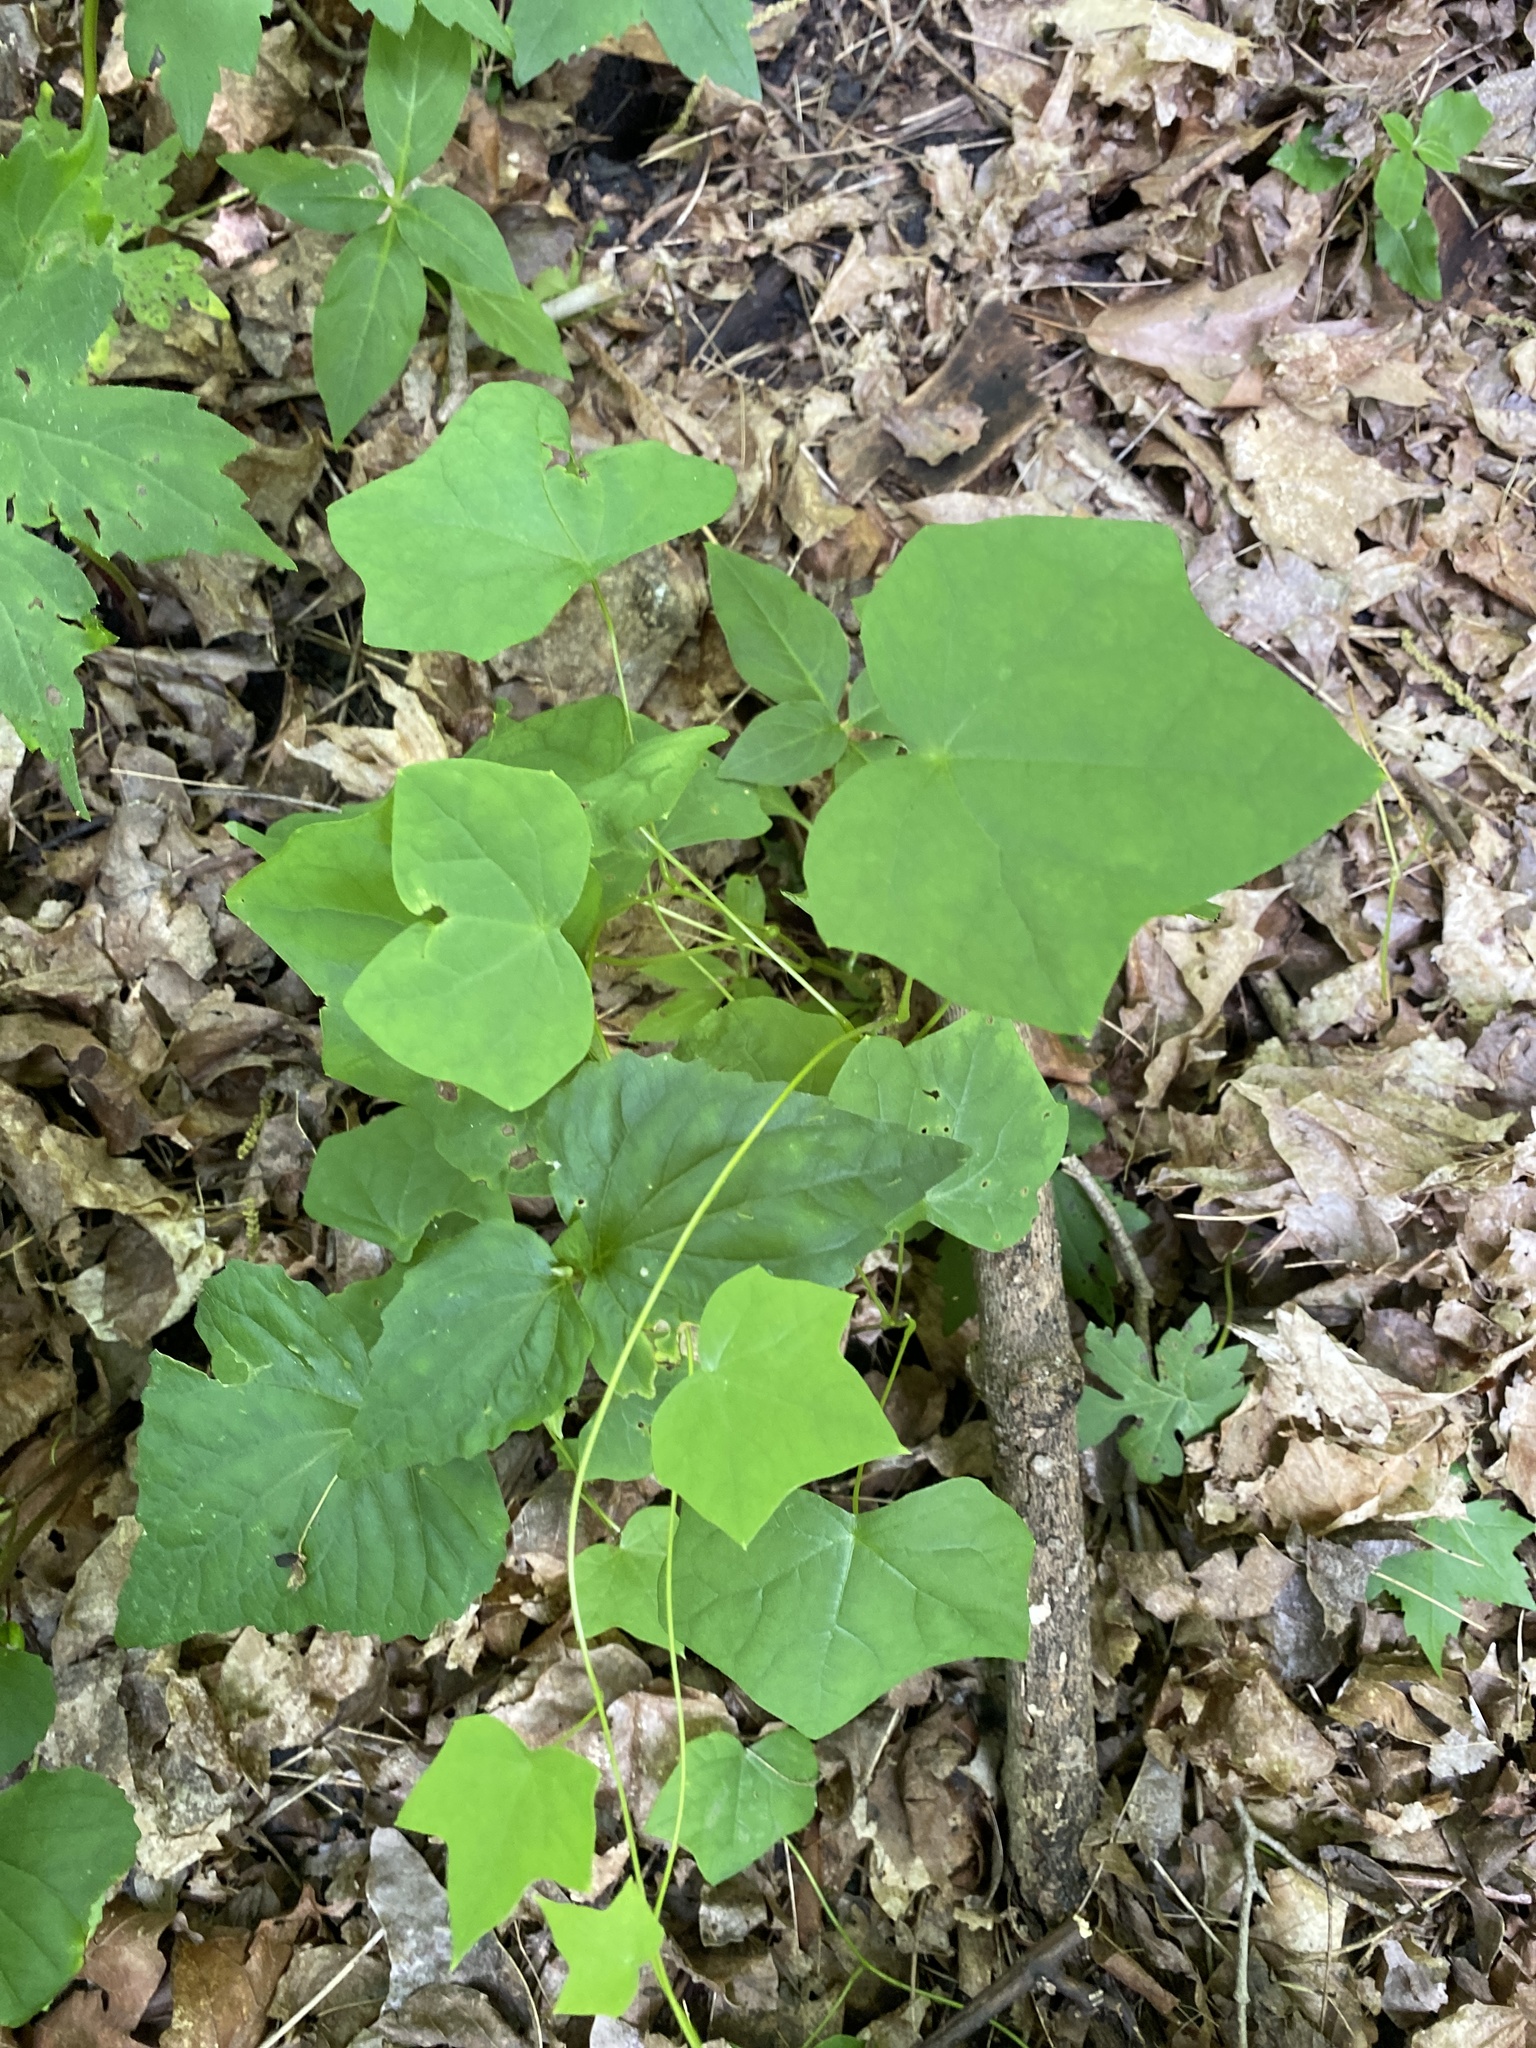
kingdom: Plantae
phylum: Tracheophyta
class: Magnoliopsida
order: Ranunculales
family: Menispermaceae
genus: Menispermum
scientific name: Menispermum canadense
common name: Moonseed
